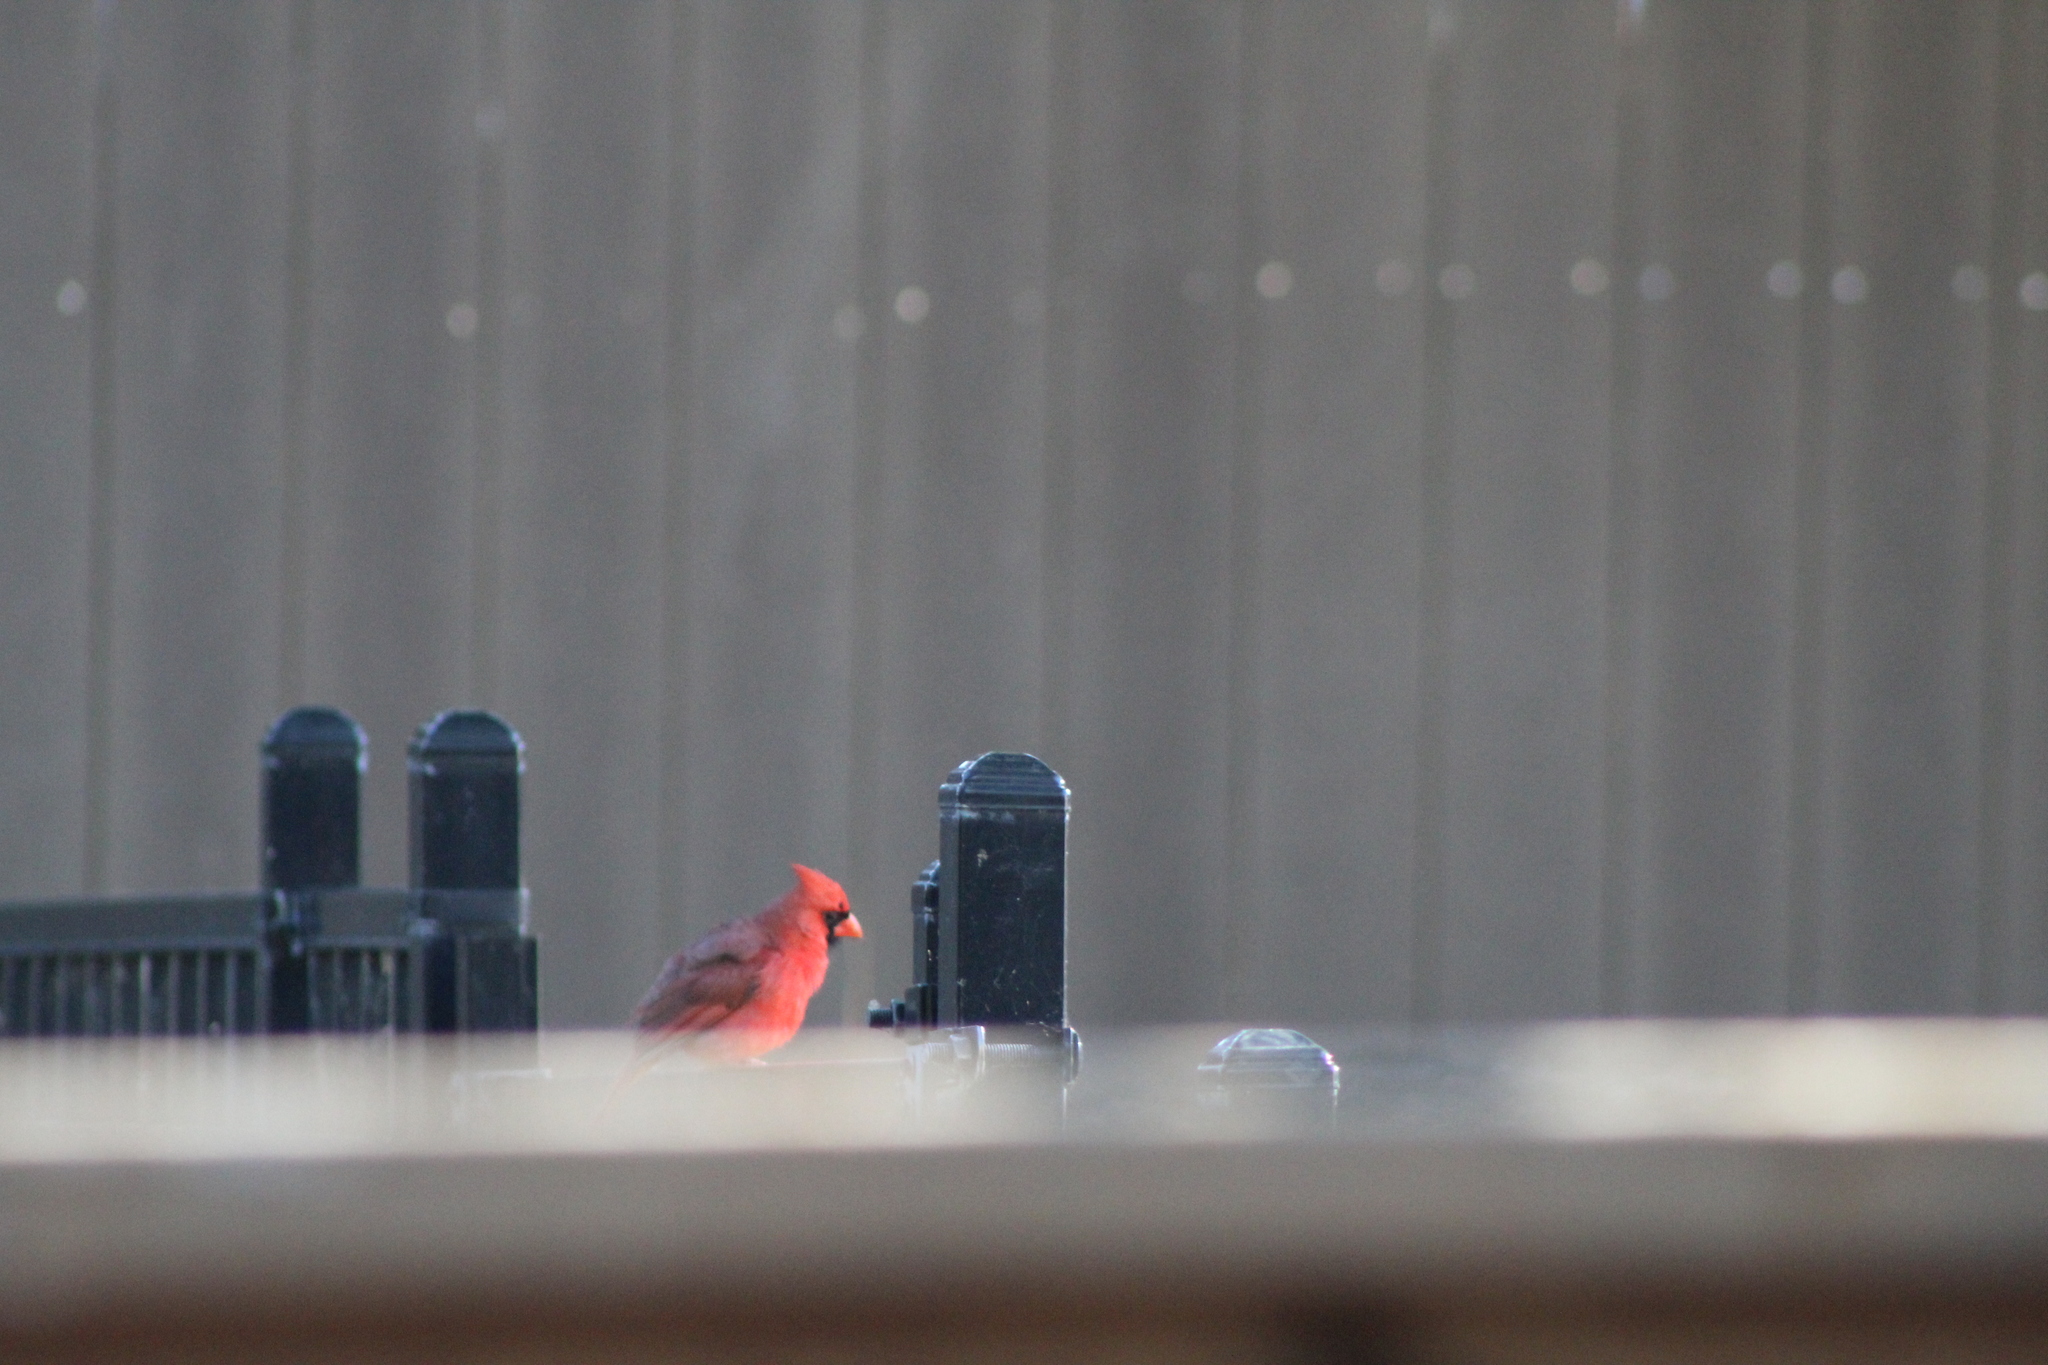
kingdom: Animalia
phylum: Chordata
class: Aves
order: Passeriformes
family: Cardinalidae
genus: Cardinalis
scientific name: Cardinalis cardinalis
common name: Northern cardinal
